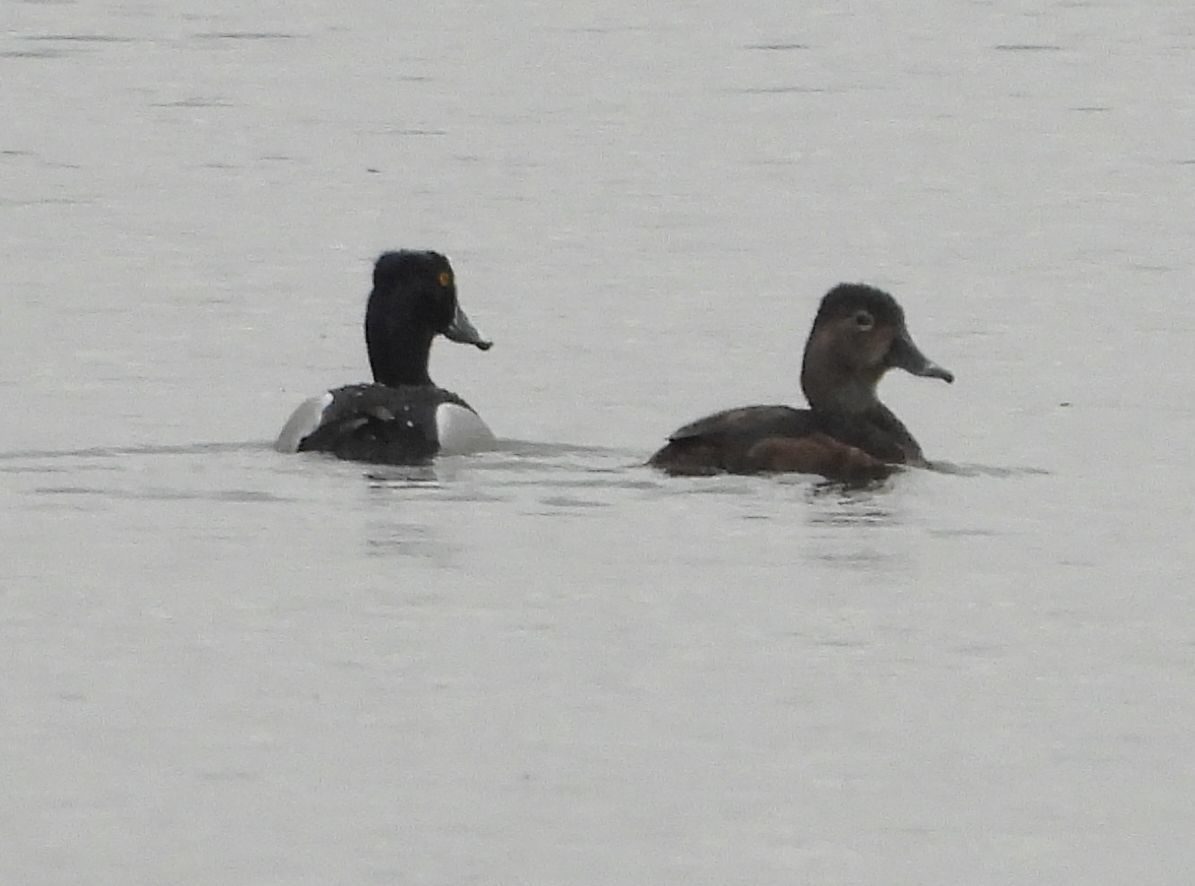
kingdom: Animalia
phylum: Chordata
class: Aves
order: Anseriformes
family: Anatidae
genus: Aythya
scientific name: Aythya collaris
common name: Ring-necked duck
